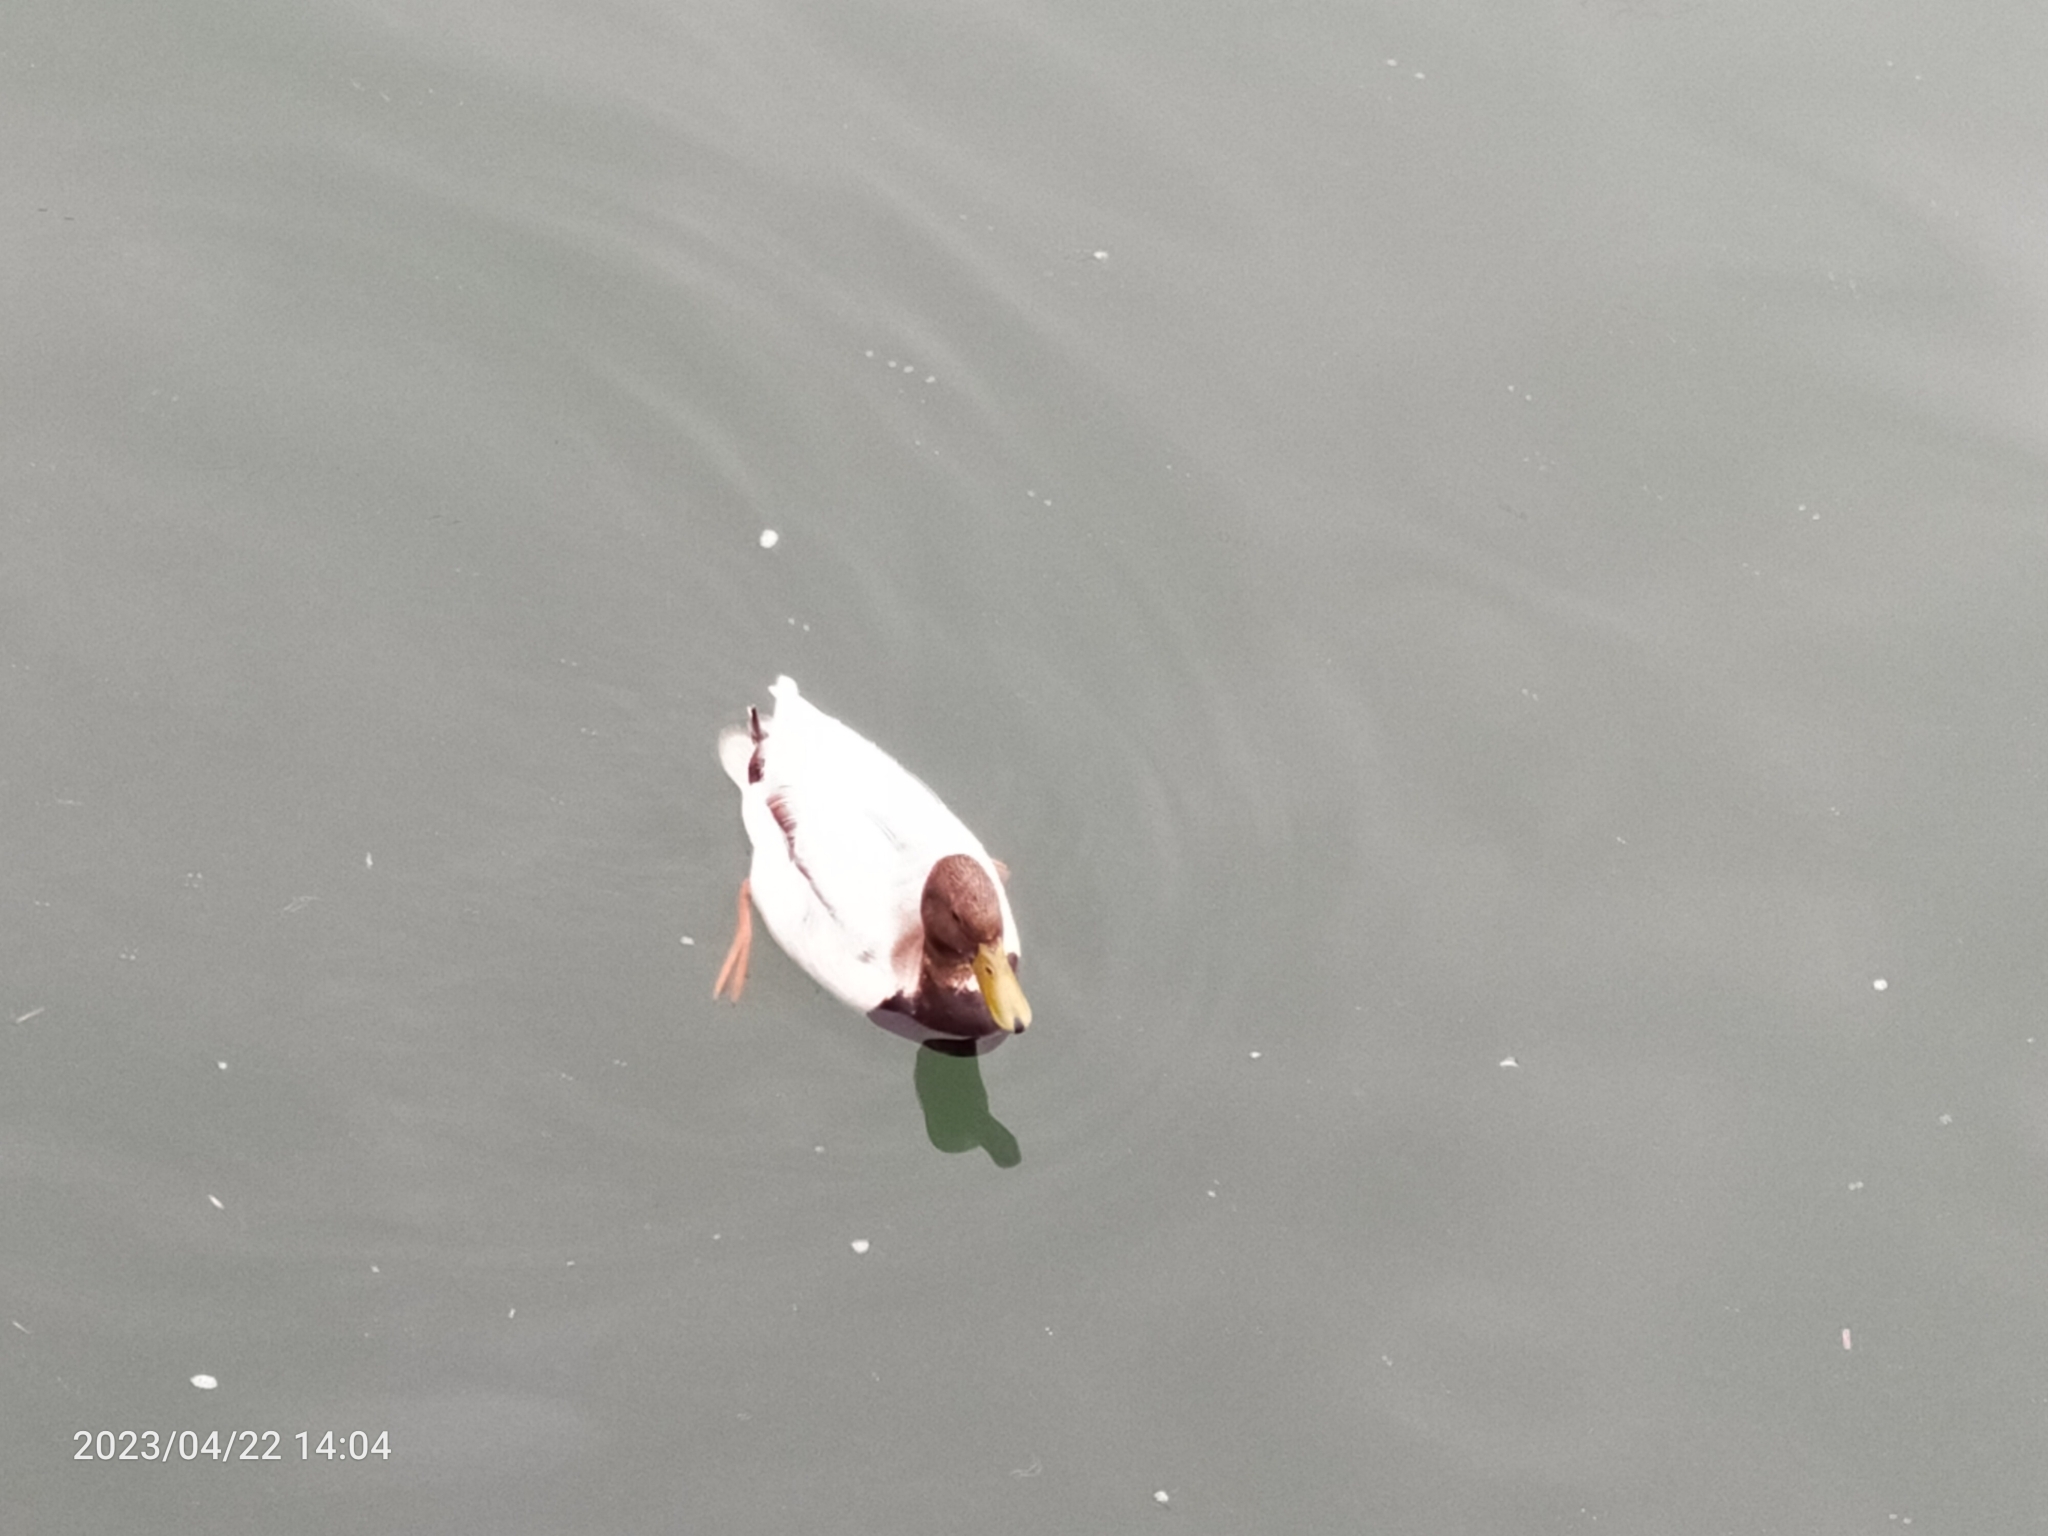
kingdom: Animalia
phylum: Chordata
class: Aves
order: Anseriformes
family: Anatidae
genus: Anas
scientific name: Anas platyrhynchos
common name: Mallard
